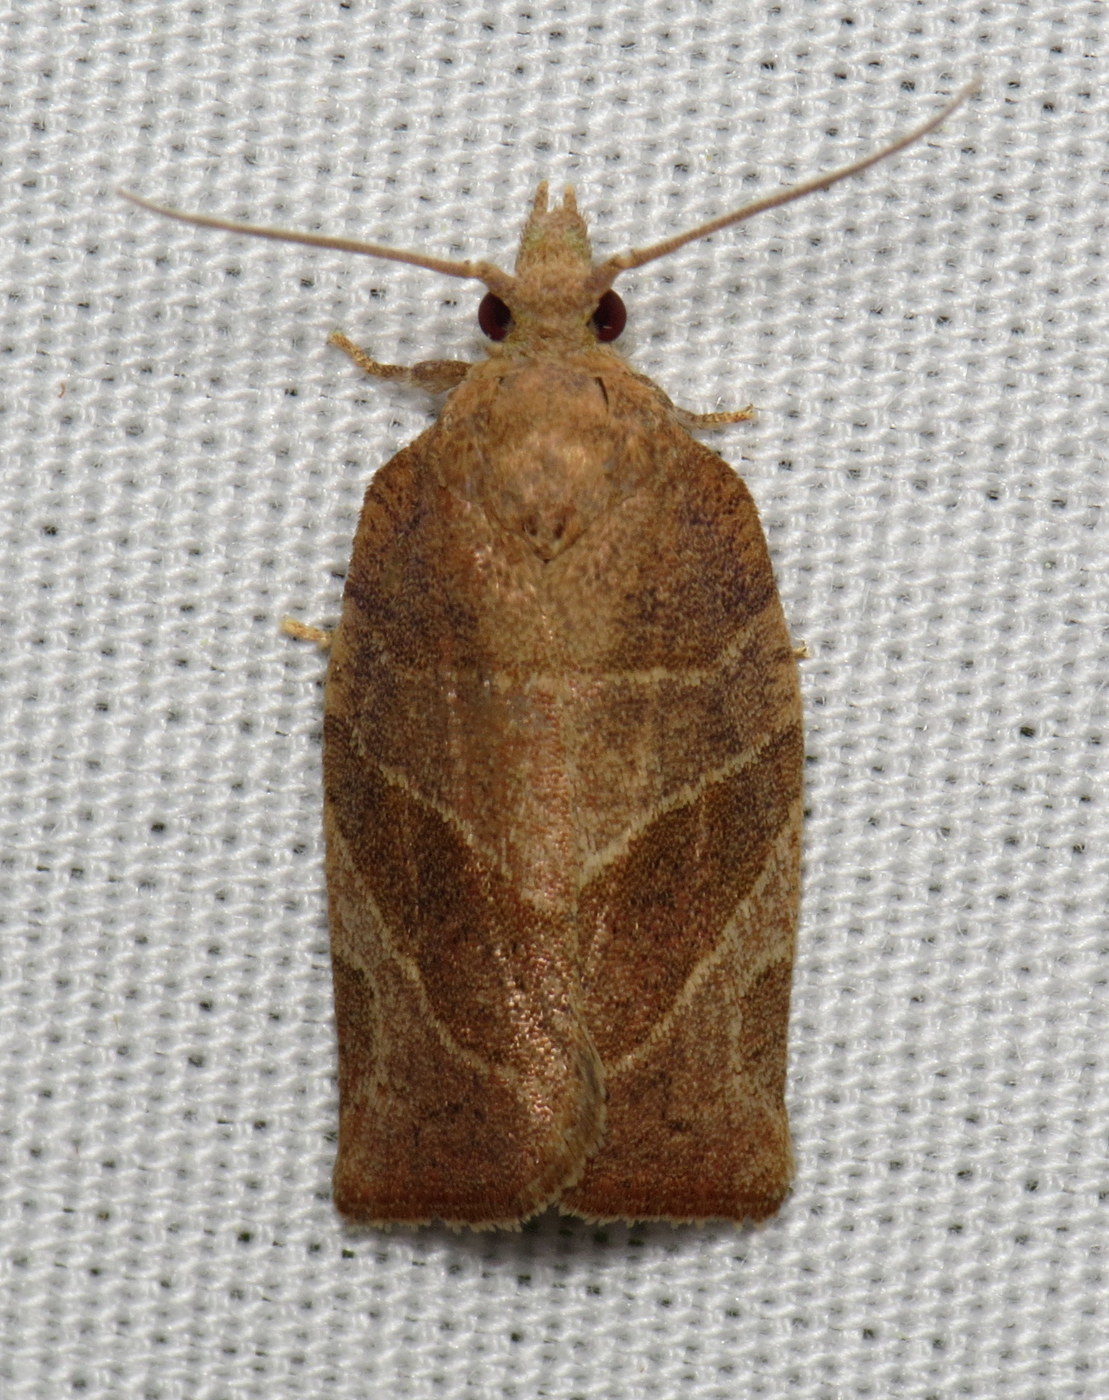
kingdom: Animalia
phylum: Arthropoda
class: Insecta
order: Lepidoptera
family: Tortricidae
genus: Pandemis
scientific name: Pandemis limitata
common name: Three-lined leafroller moth
